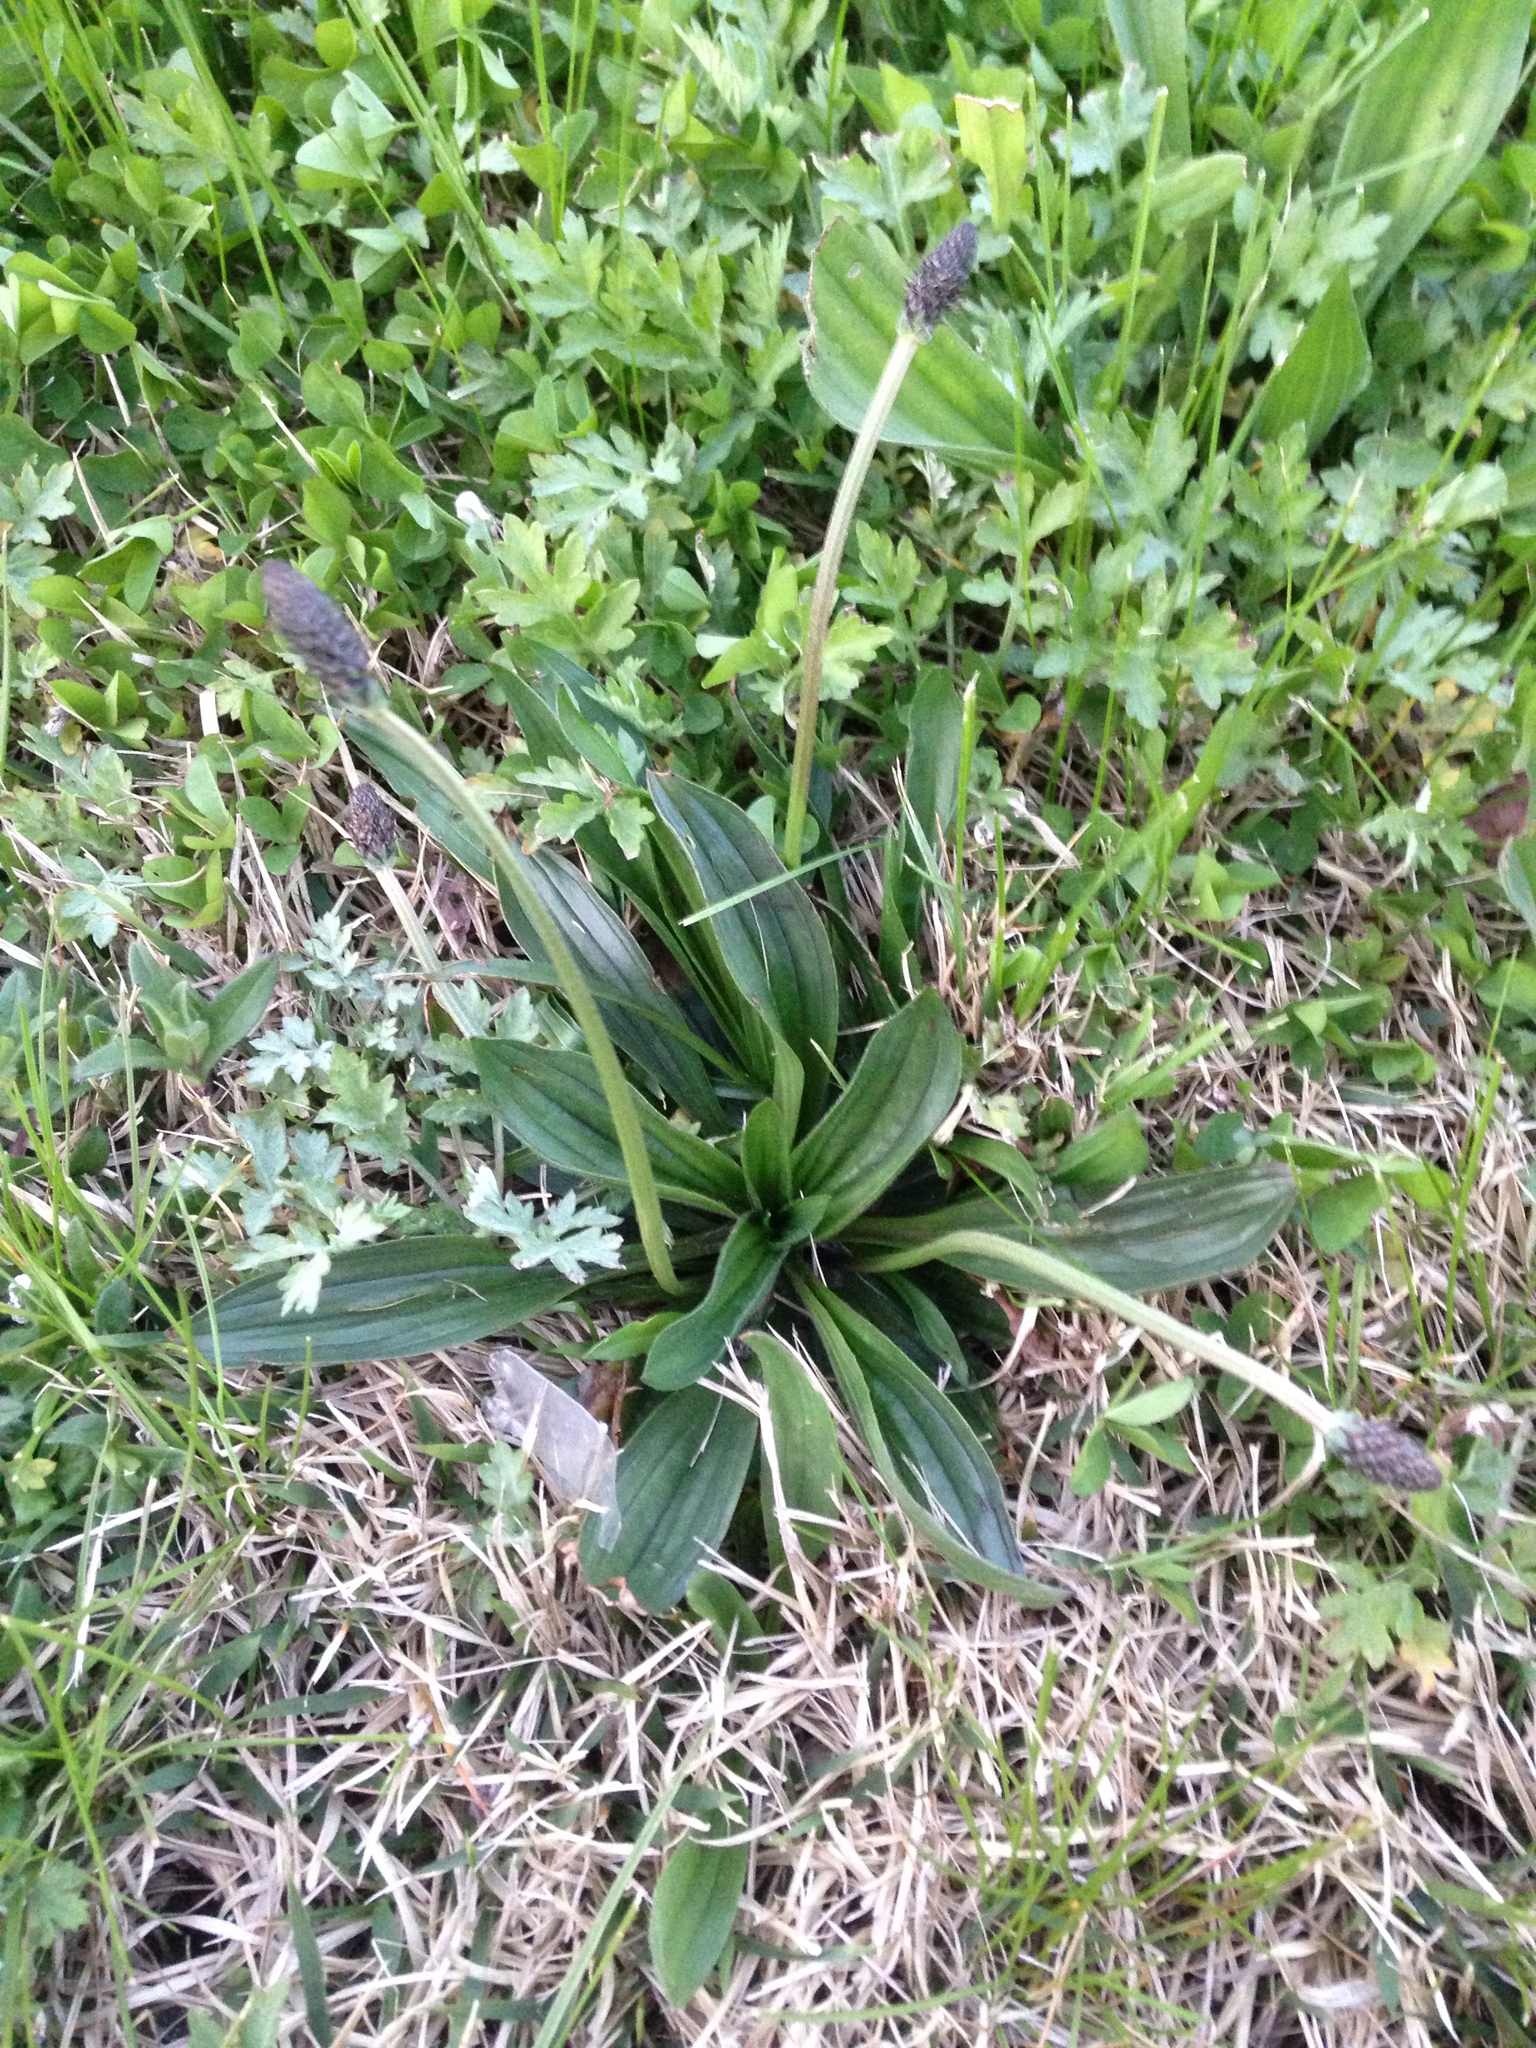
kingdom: Plantae
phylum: Tracheophyta
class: Magnoliopsida
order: Lamiales
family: Plantaginaceae
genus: Plantago
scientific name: Plantago lanceolata
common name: Ribwort plantain
